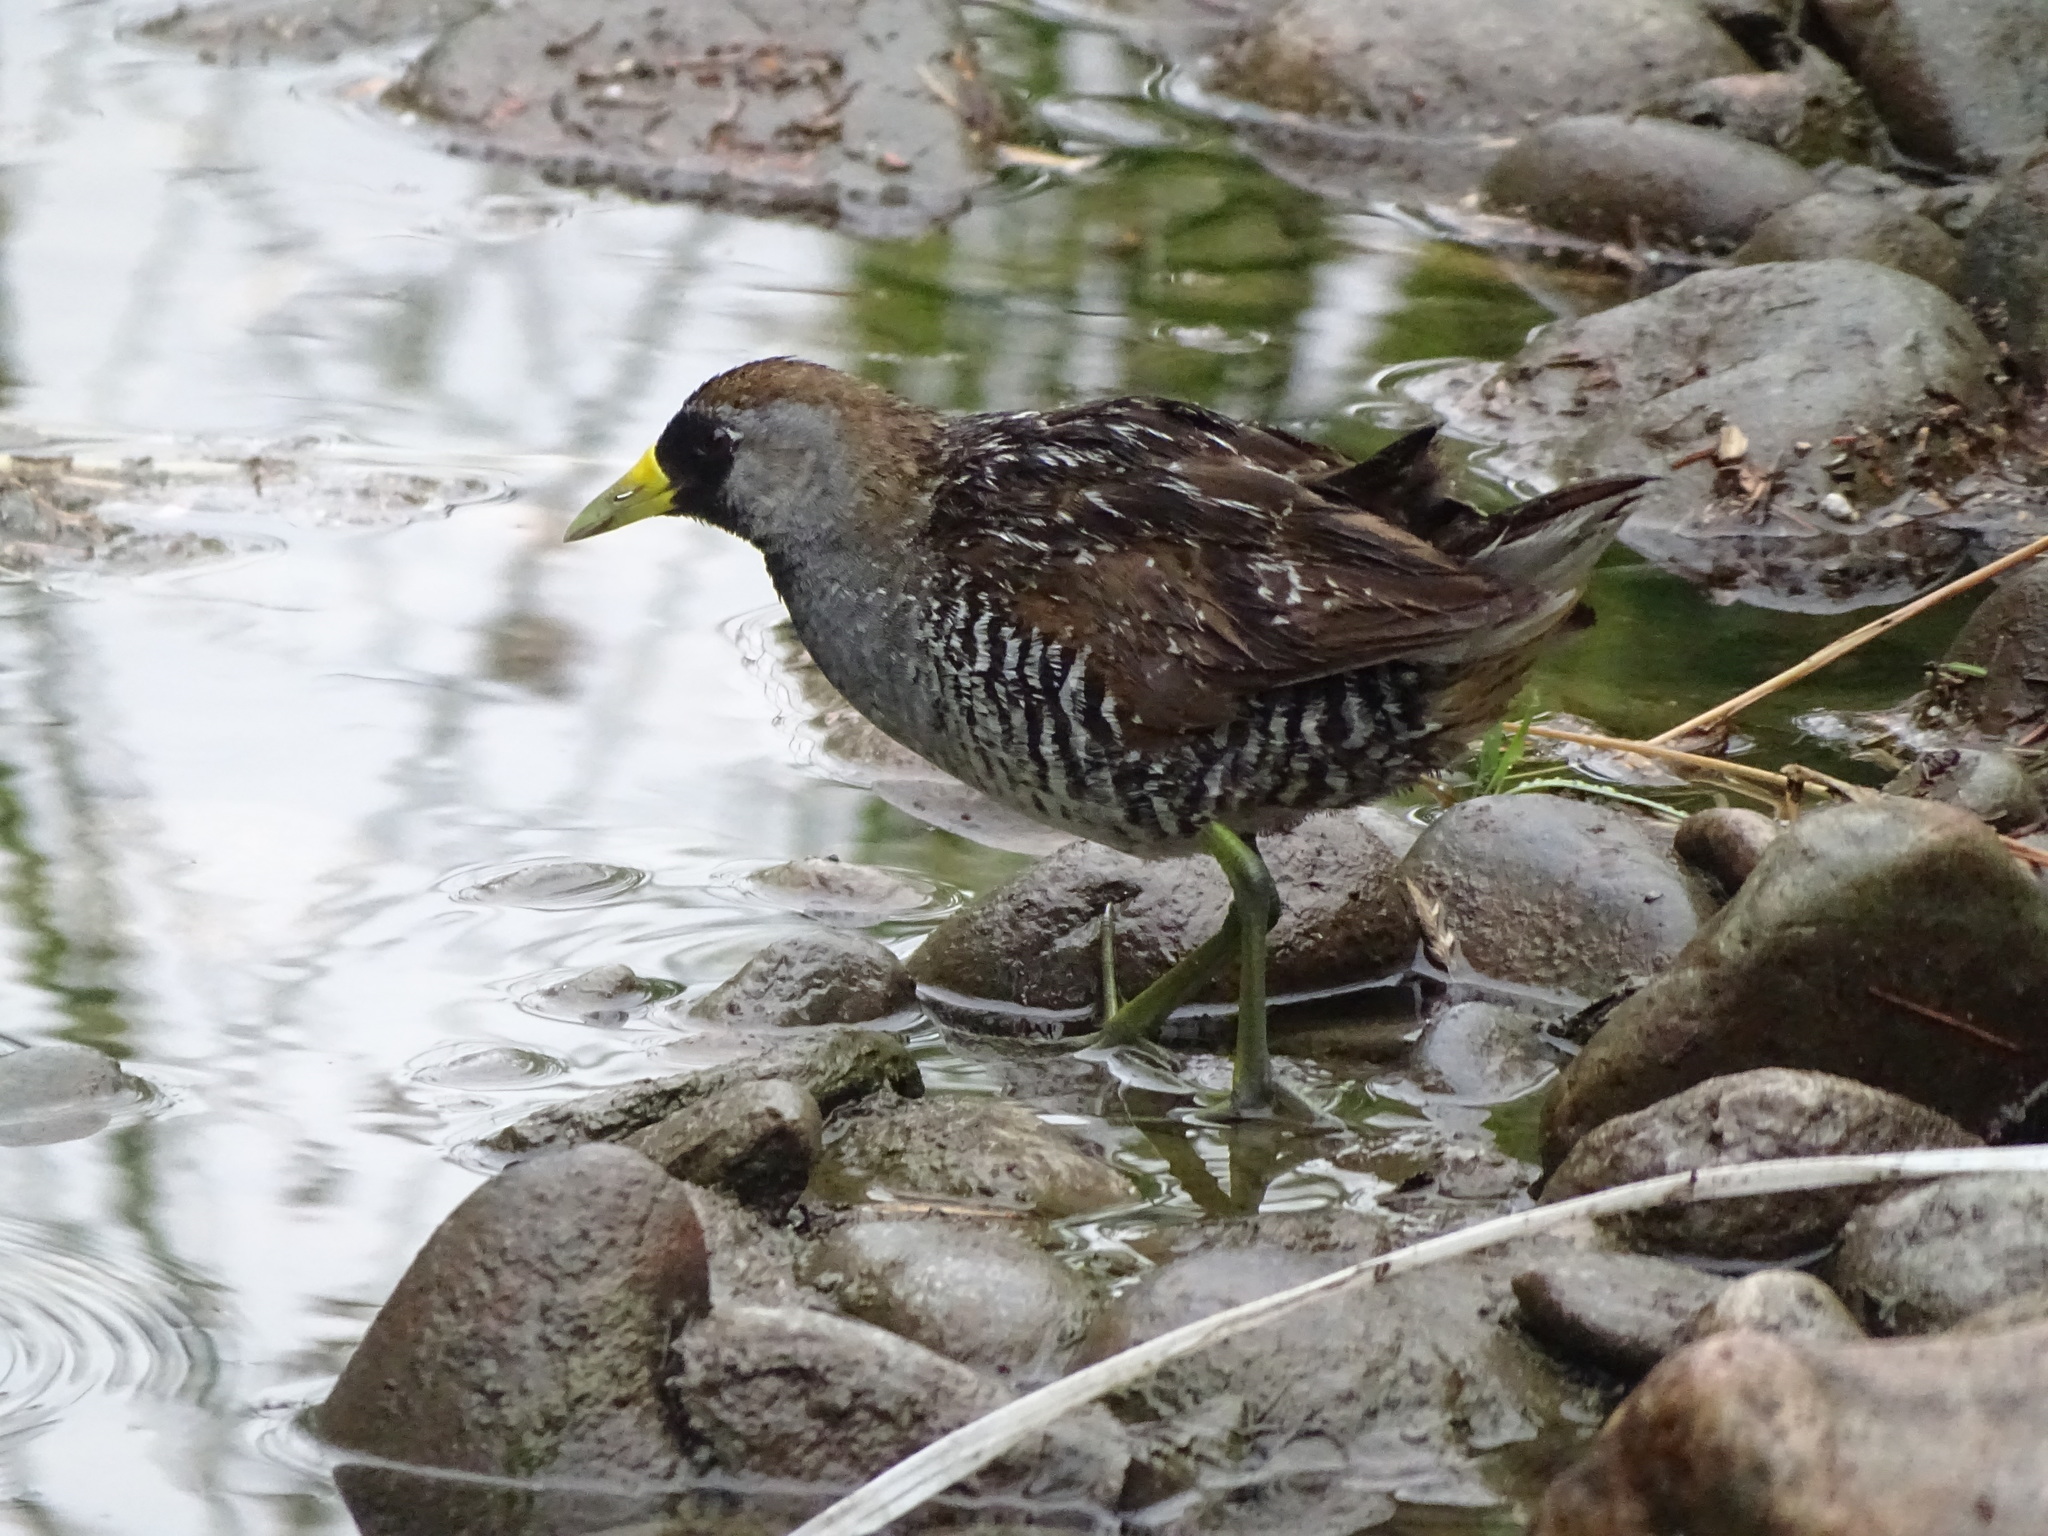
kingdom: Animalia
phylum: Chordata
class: Aves
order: Gruiformes
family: Rallidae
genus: Porzana
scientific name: Porzana carolina
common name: Sora
